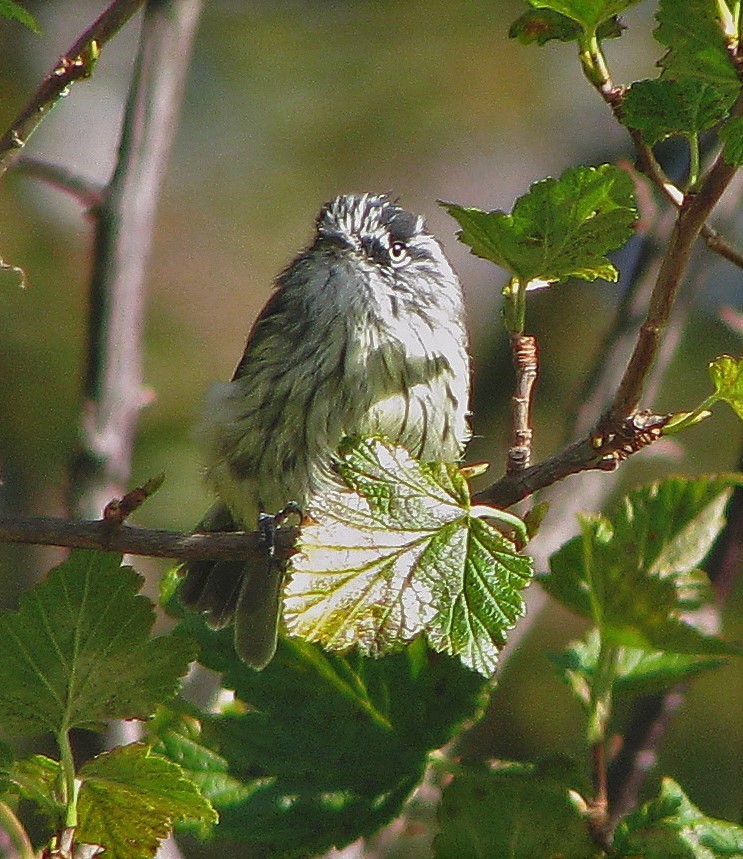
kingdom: Animalia
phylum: Chordata
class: Aves
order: Passeriformes
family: Tyrannidae
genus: Anairetes
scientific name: Anairetes parulus
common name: Tufted tit-tyrant
